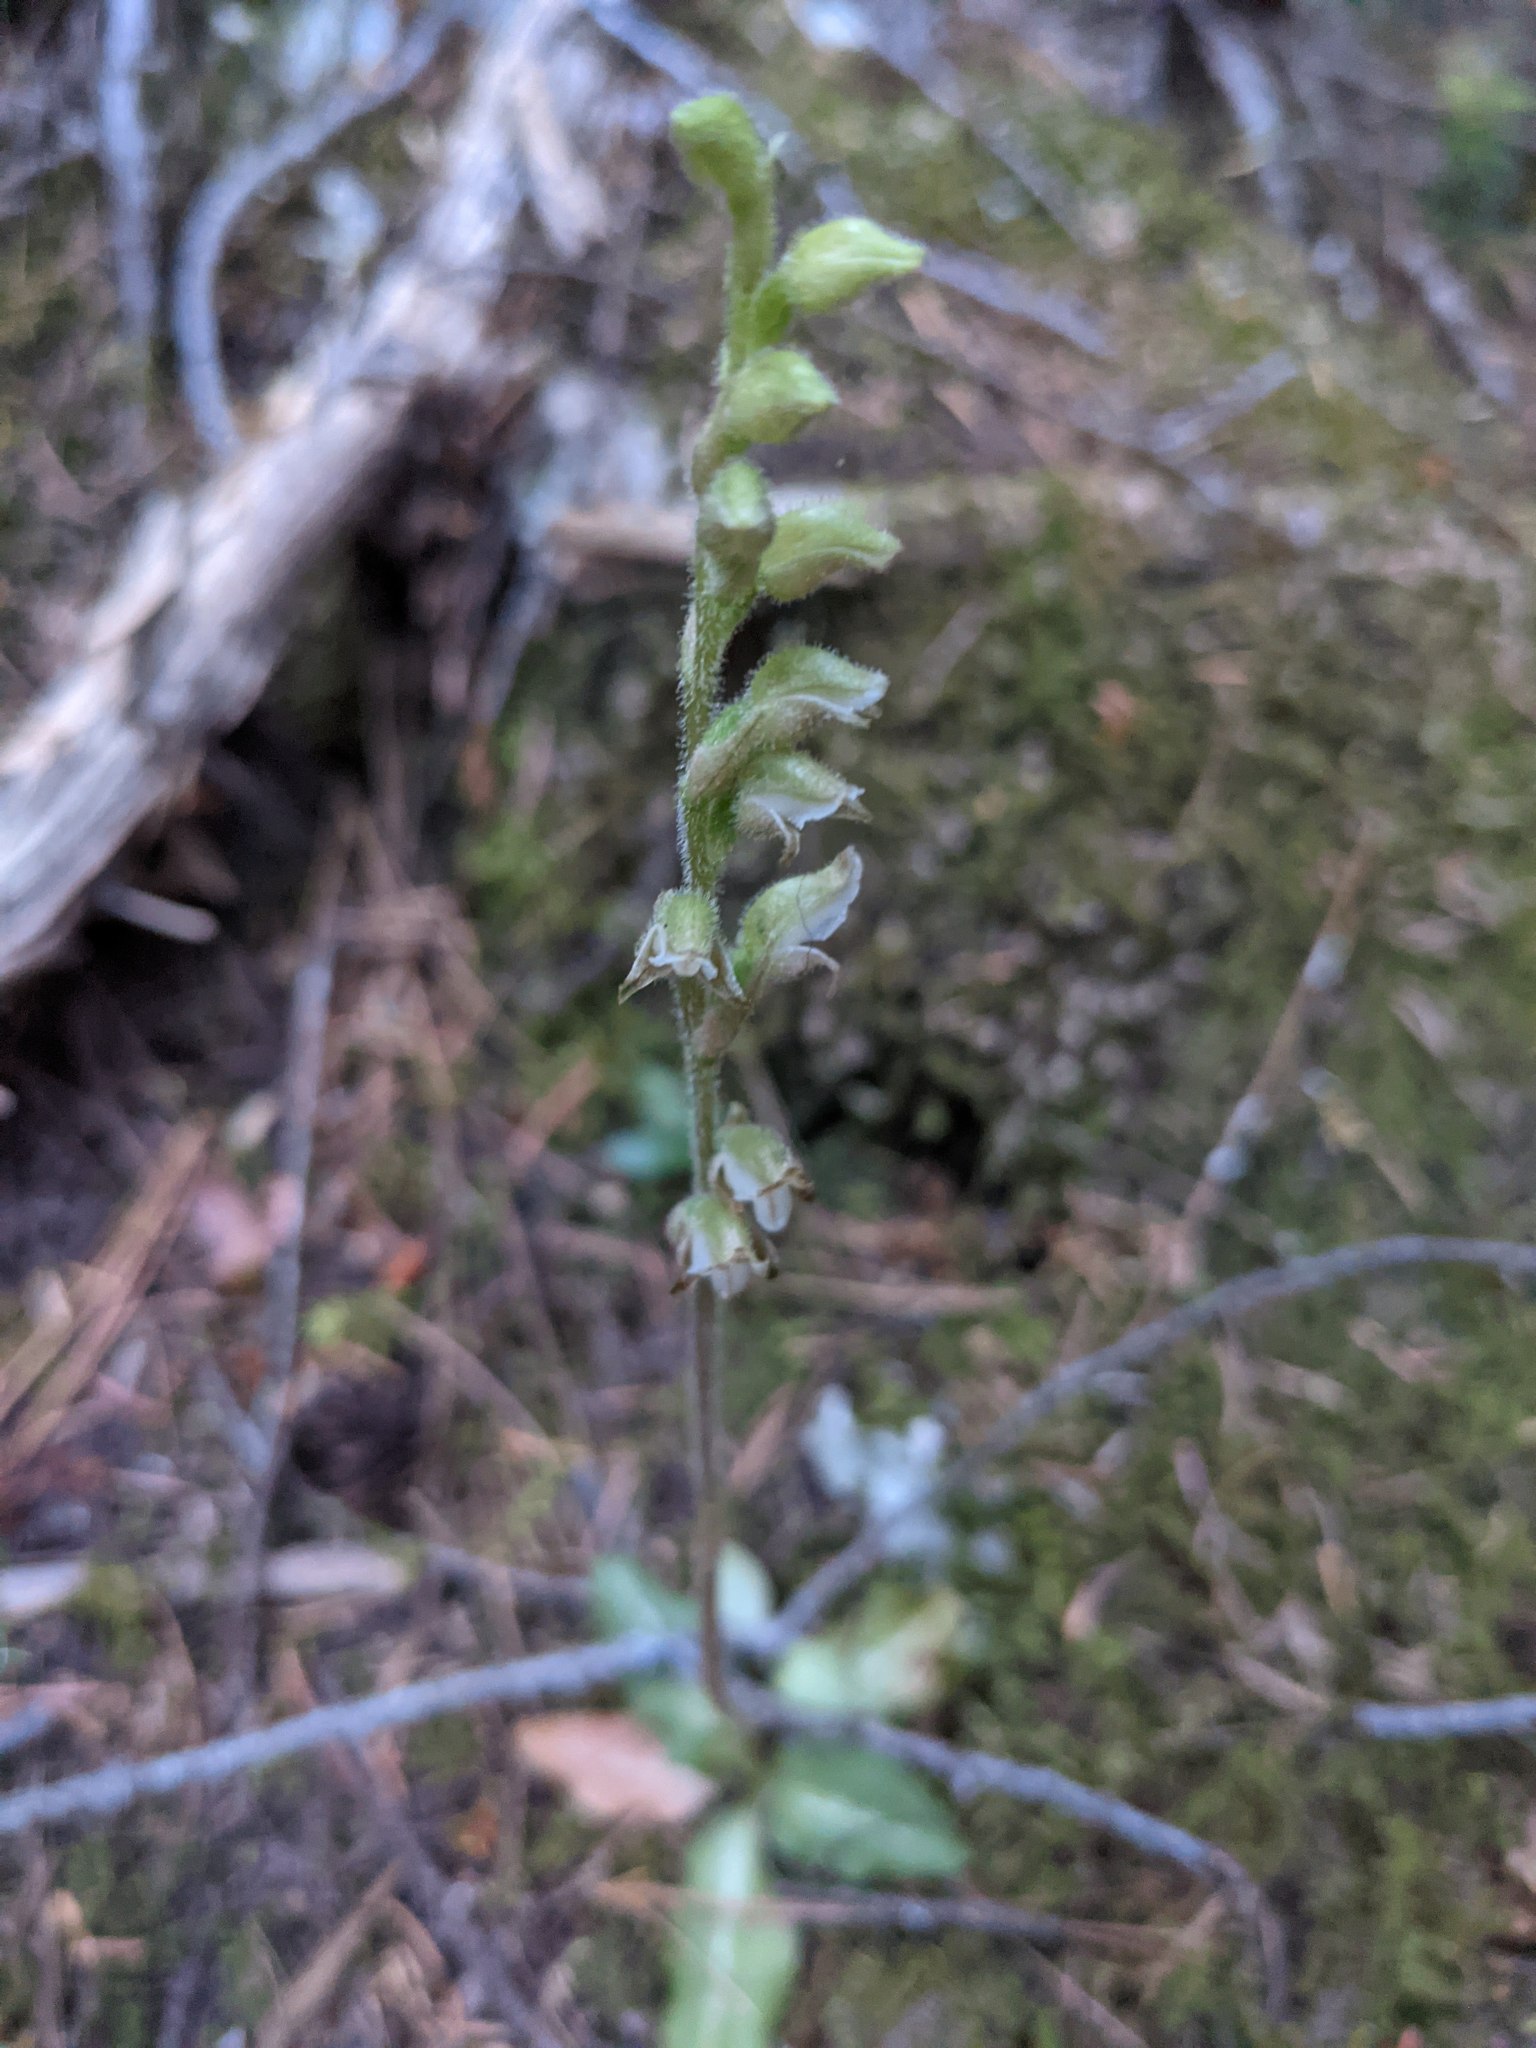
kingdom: Plantae
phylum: Tracheophyta
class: Liliopsida
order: Asparagales
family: Orchidaceae
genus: Goodyera
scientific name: Goodyera oblongifolia
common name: Giant rattlesnake-plantain
